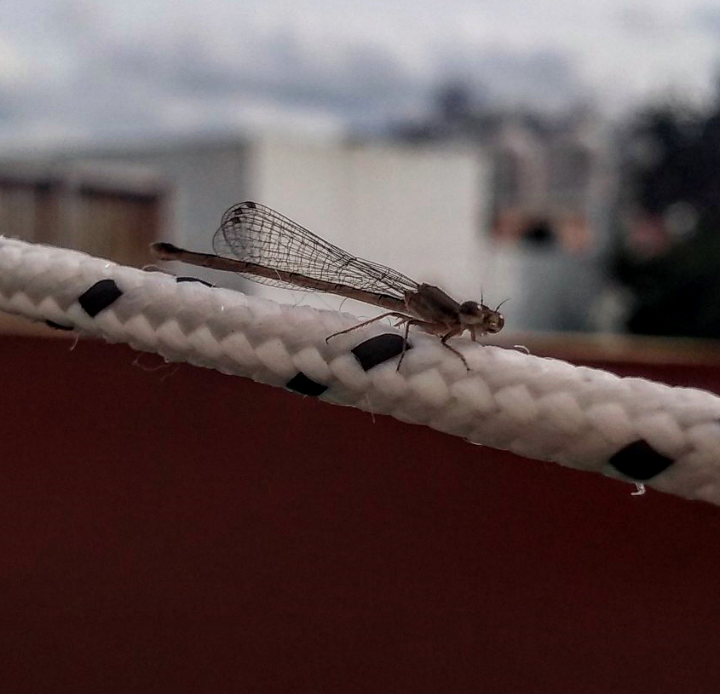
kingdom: Animalia
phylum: Arthropoda
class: Insecta
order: Odonata
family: Coenagrionidae
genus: Argentagrion
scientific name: Argentagrion ambiguum
